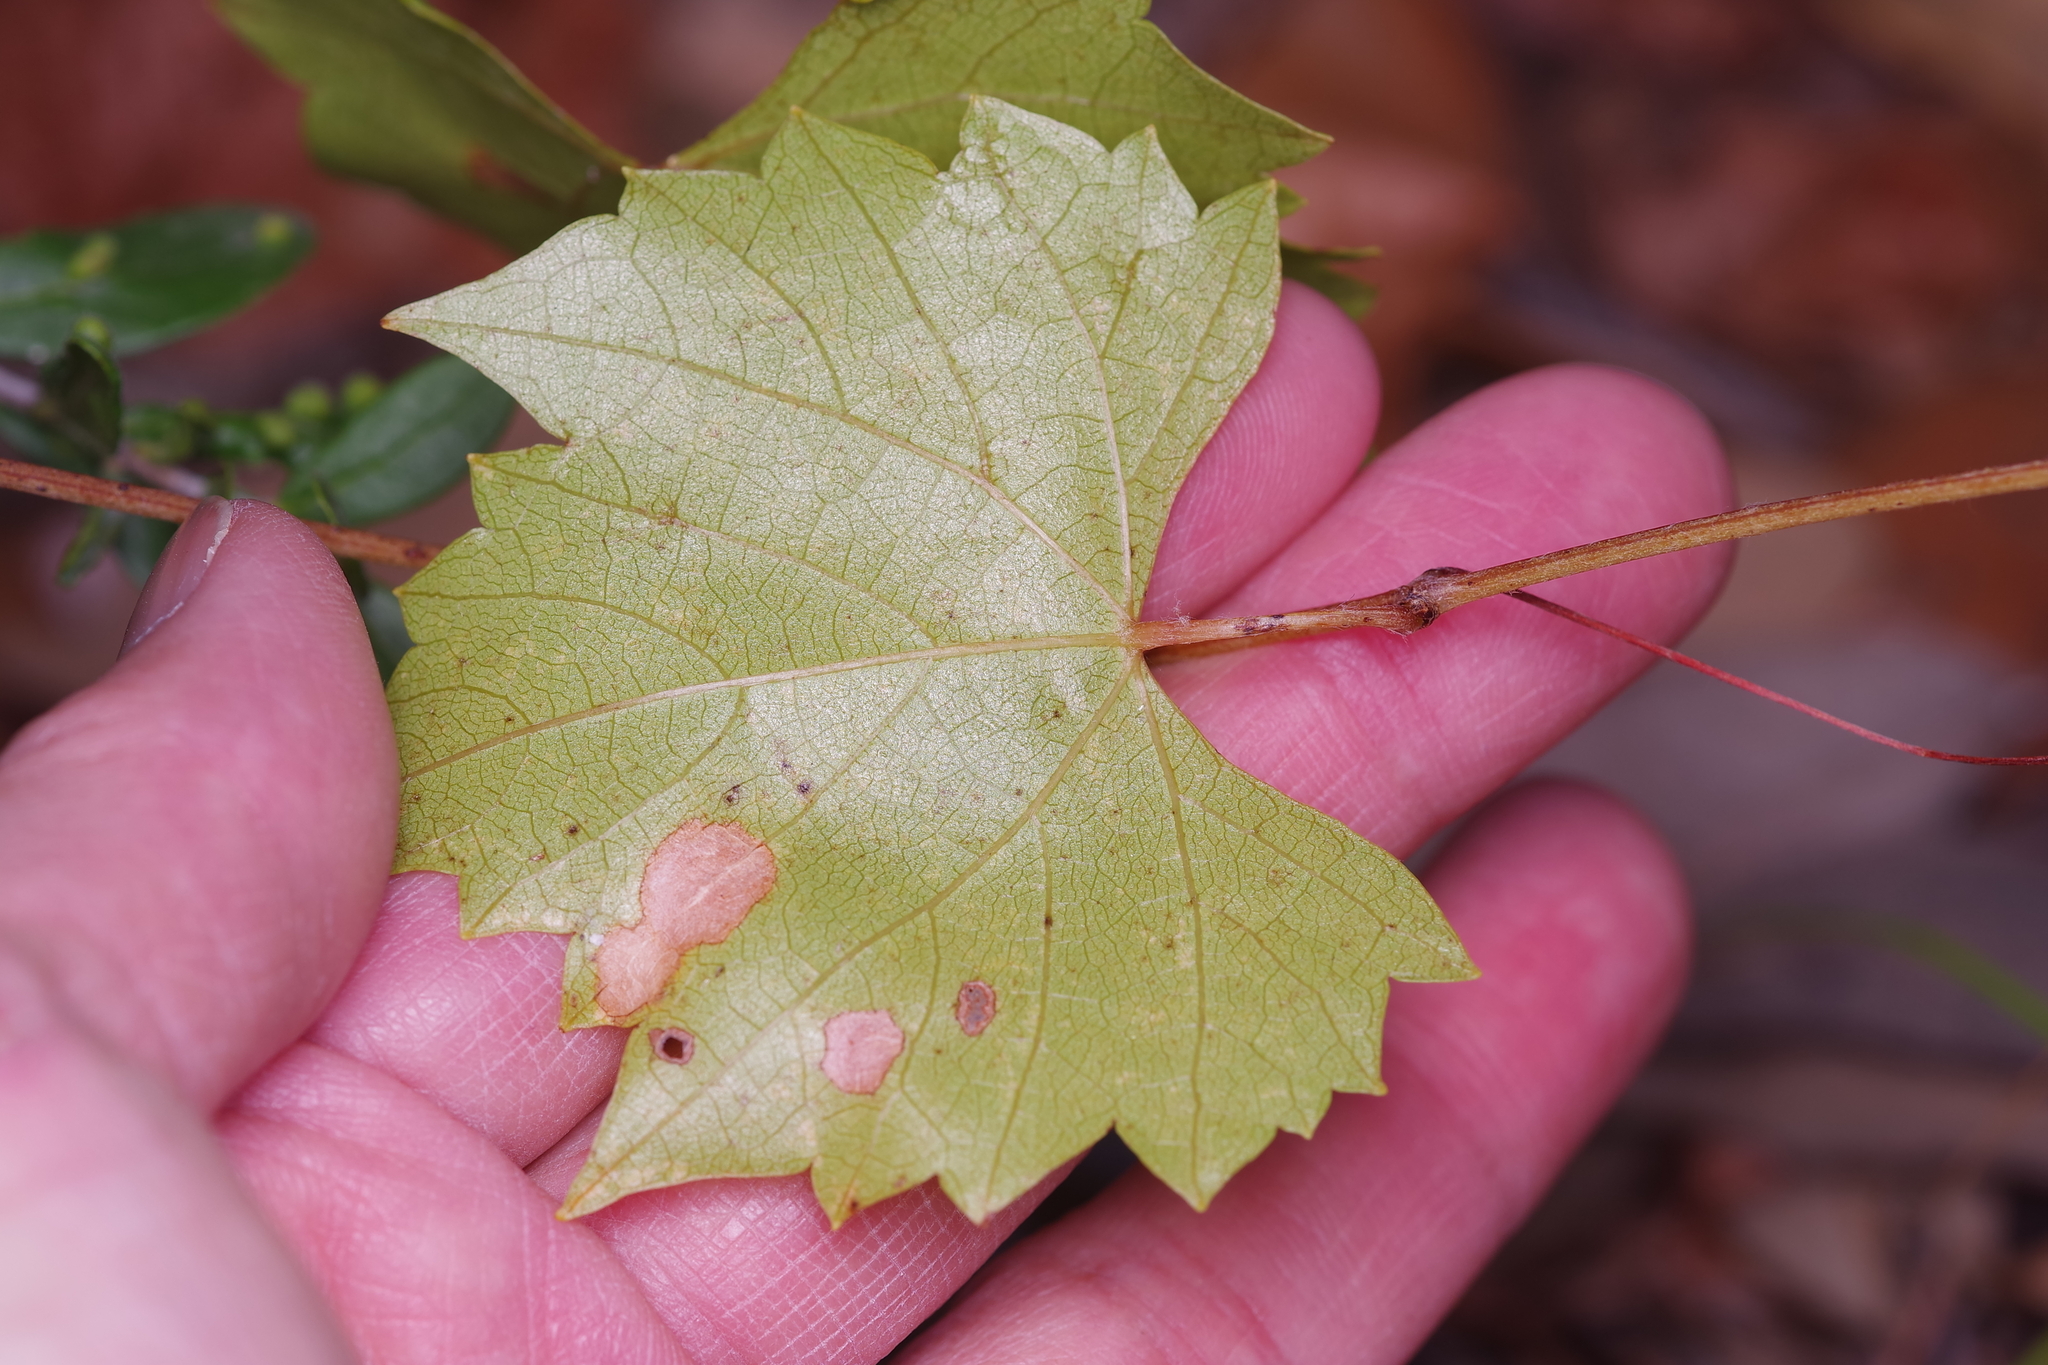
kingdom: Plantae
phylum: Tracheophyta
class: Magnoliopsida
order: Vitales
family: Vitaceae
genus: Vitis
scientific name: Vitis monticola
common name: Mountain grape
